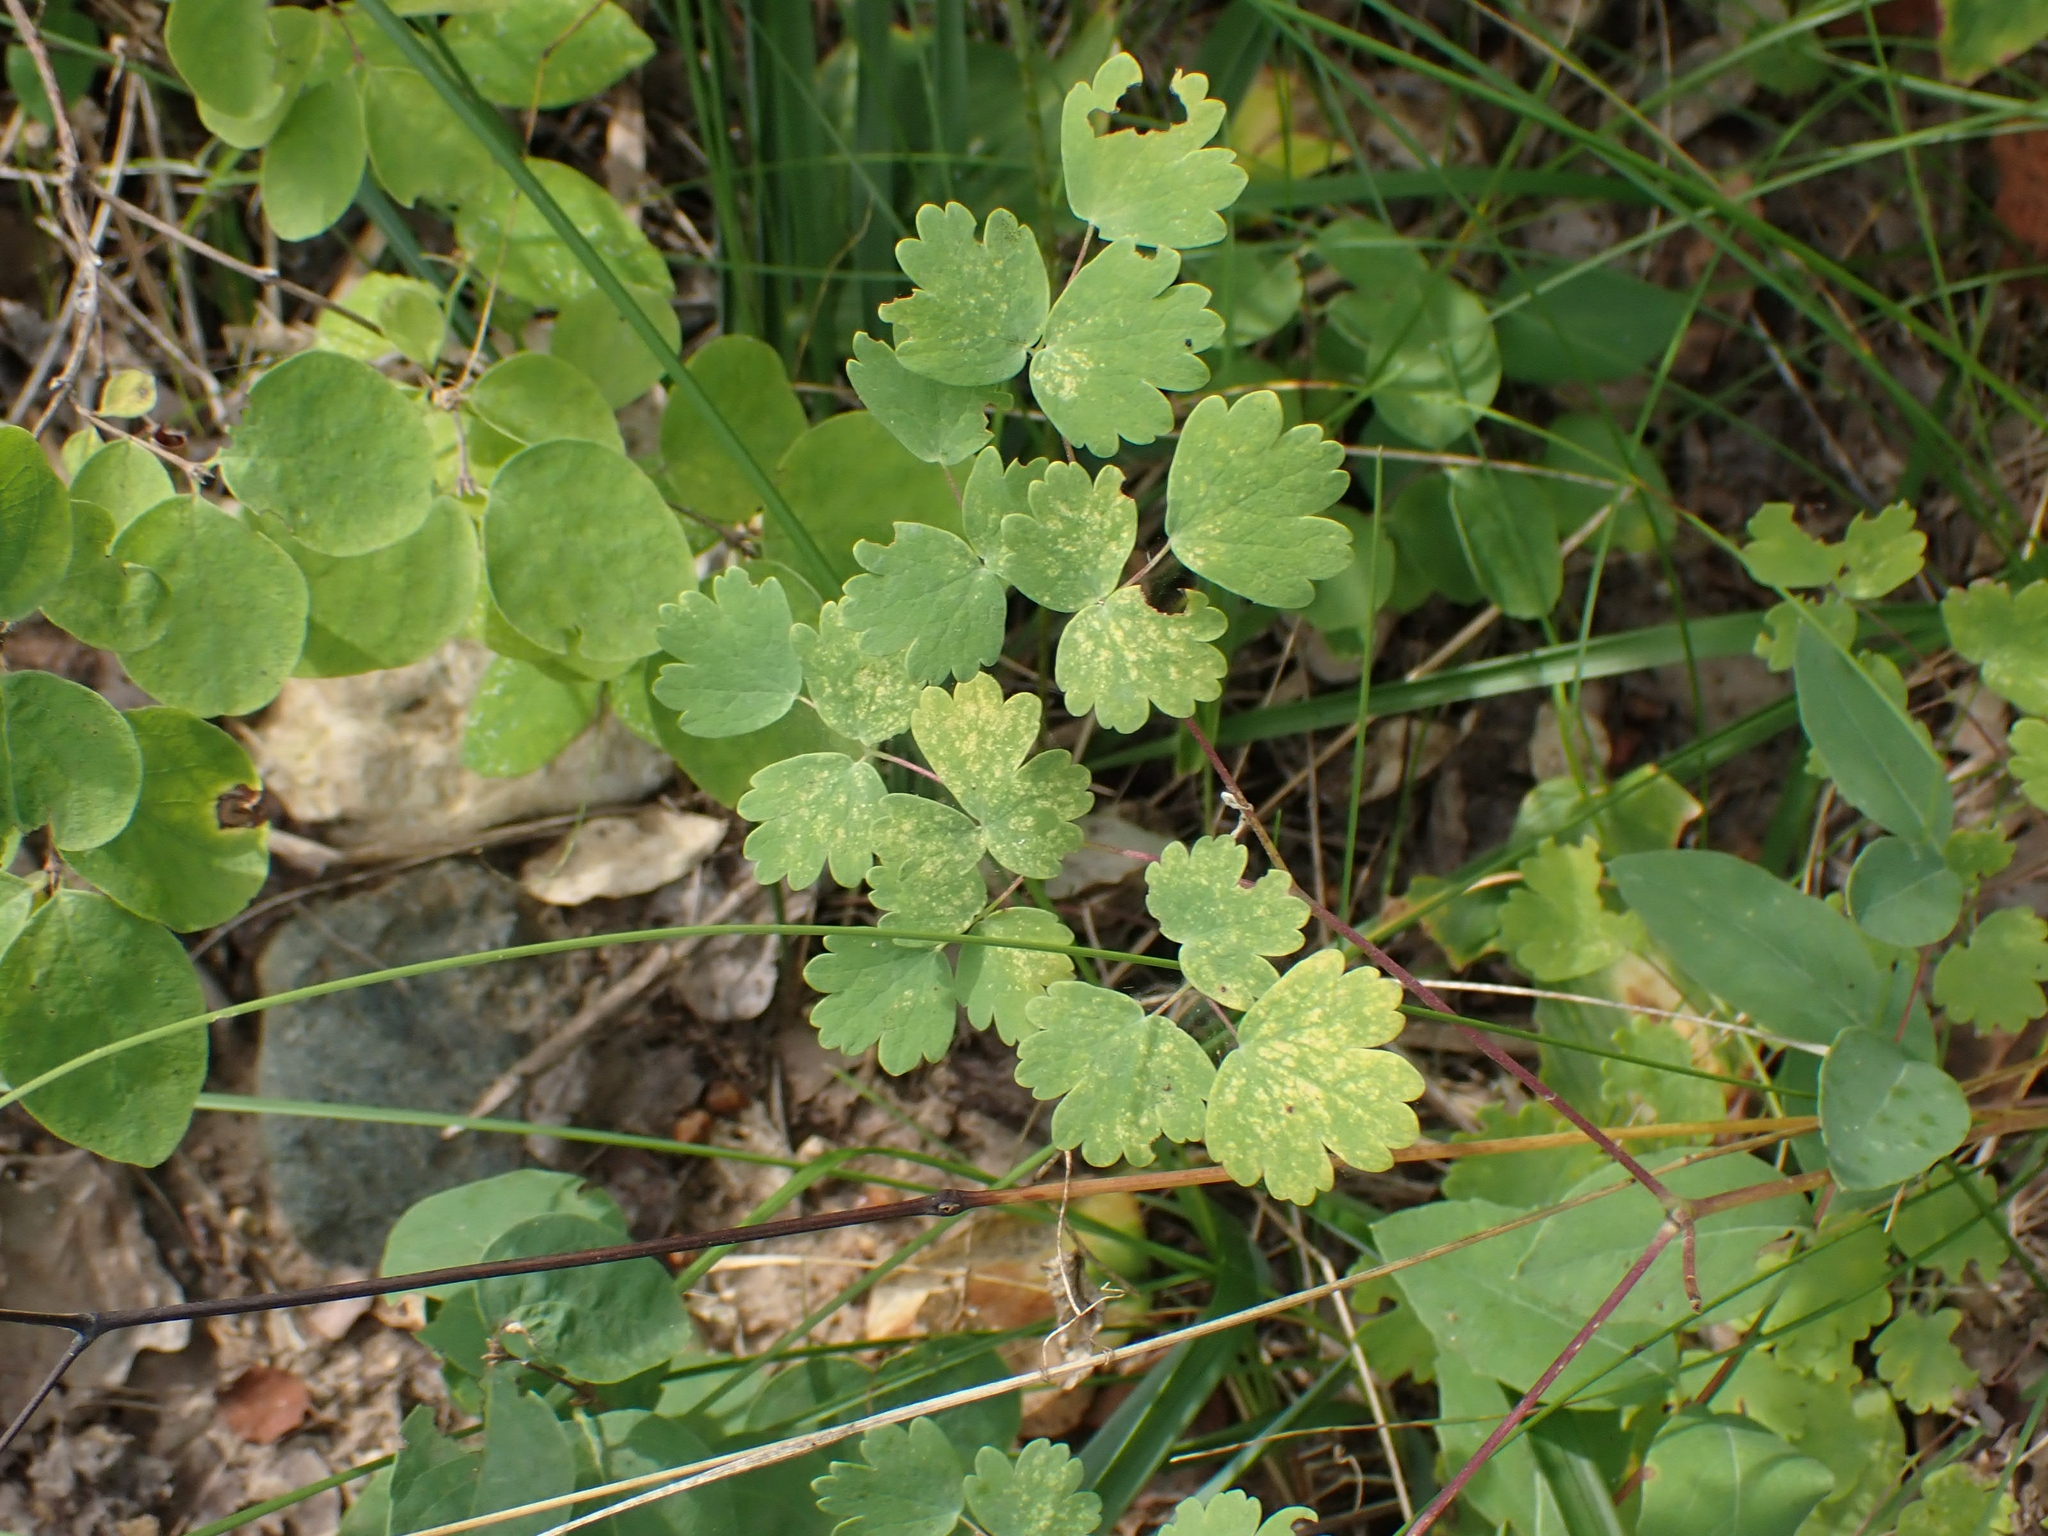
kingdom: Plantae
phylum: Tracheophyta
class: Magnoliopsida
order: Ranunculales
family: Ranunculaceae
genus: Thalictrum
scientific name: Thalictrum venulosum
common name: Early meadow-rue
